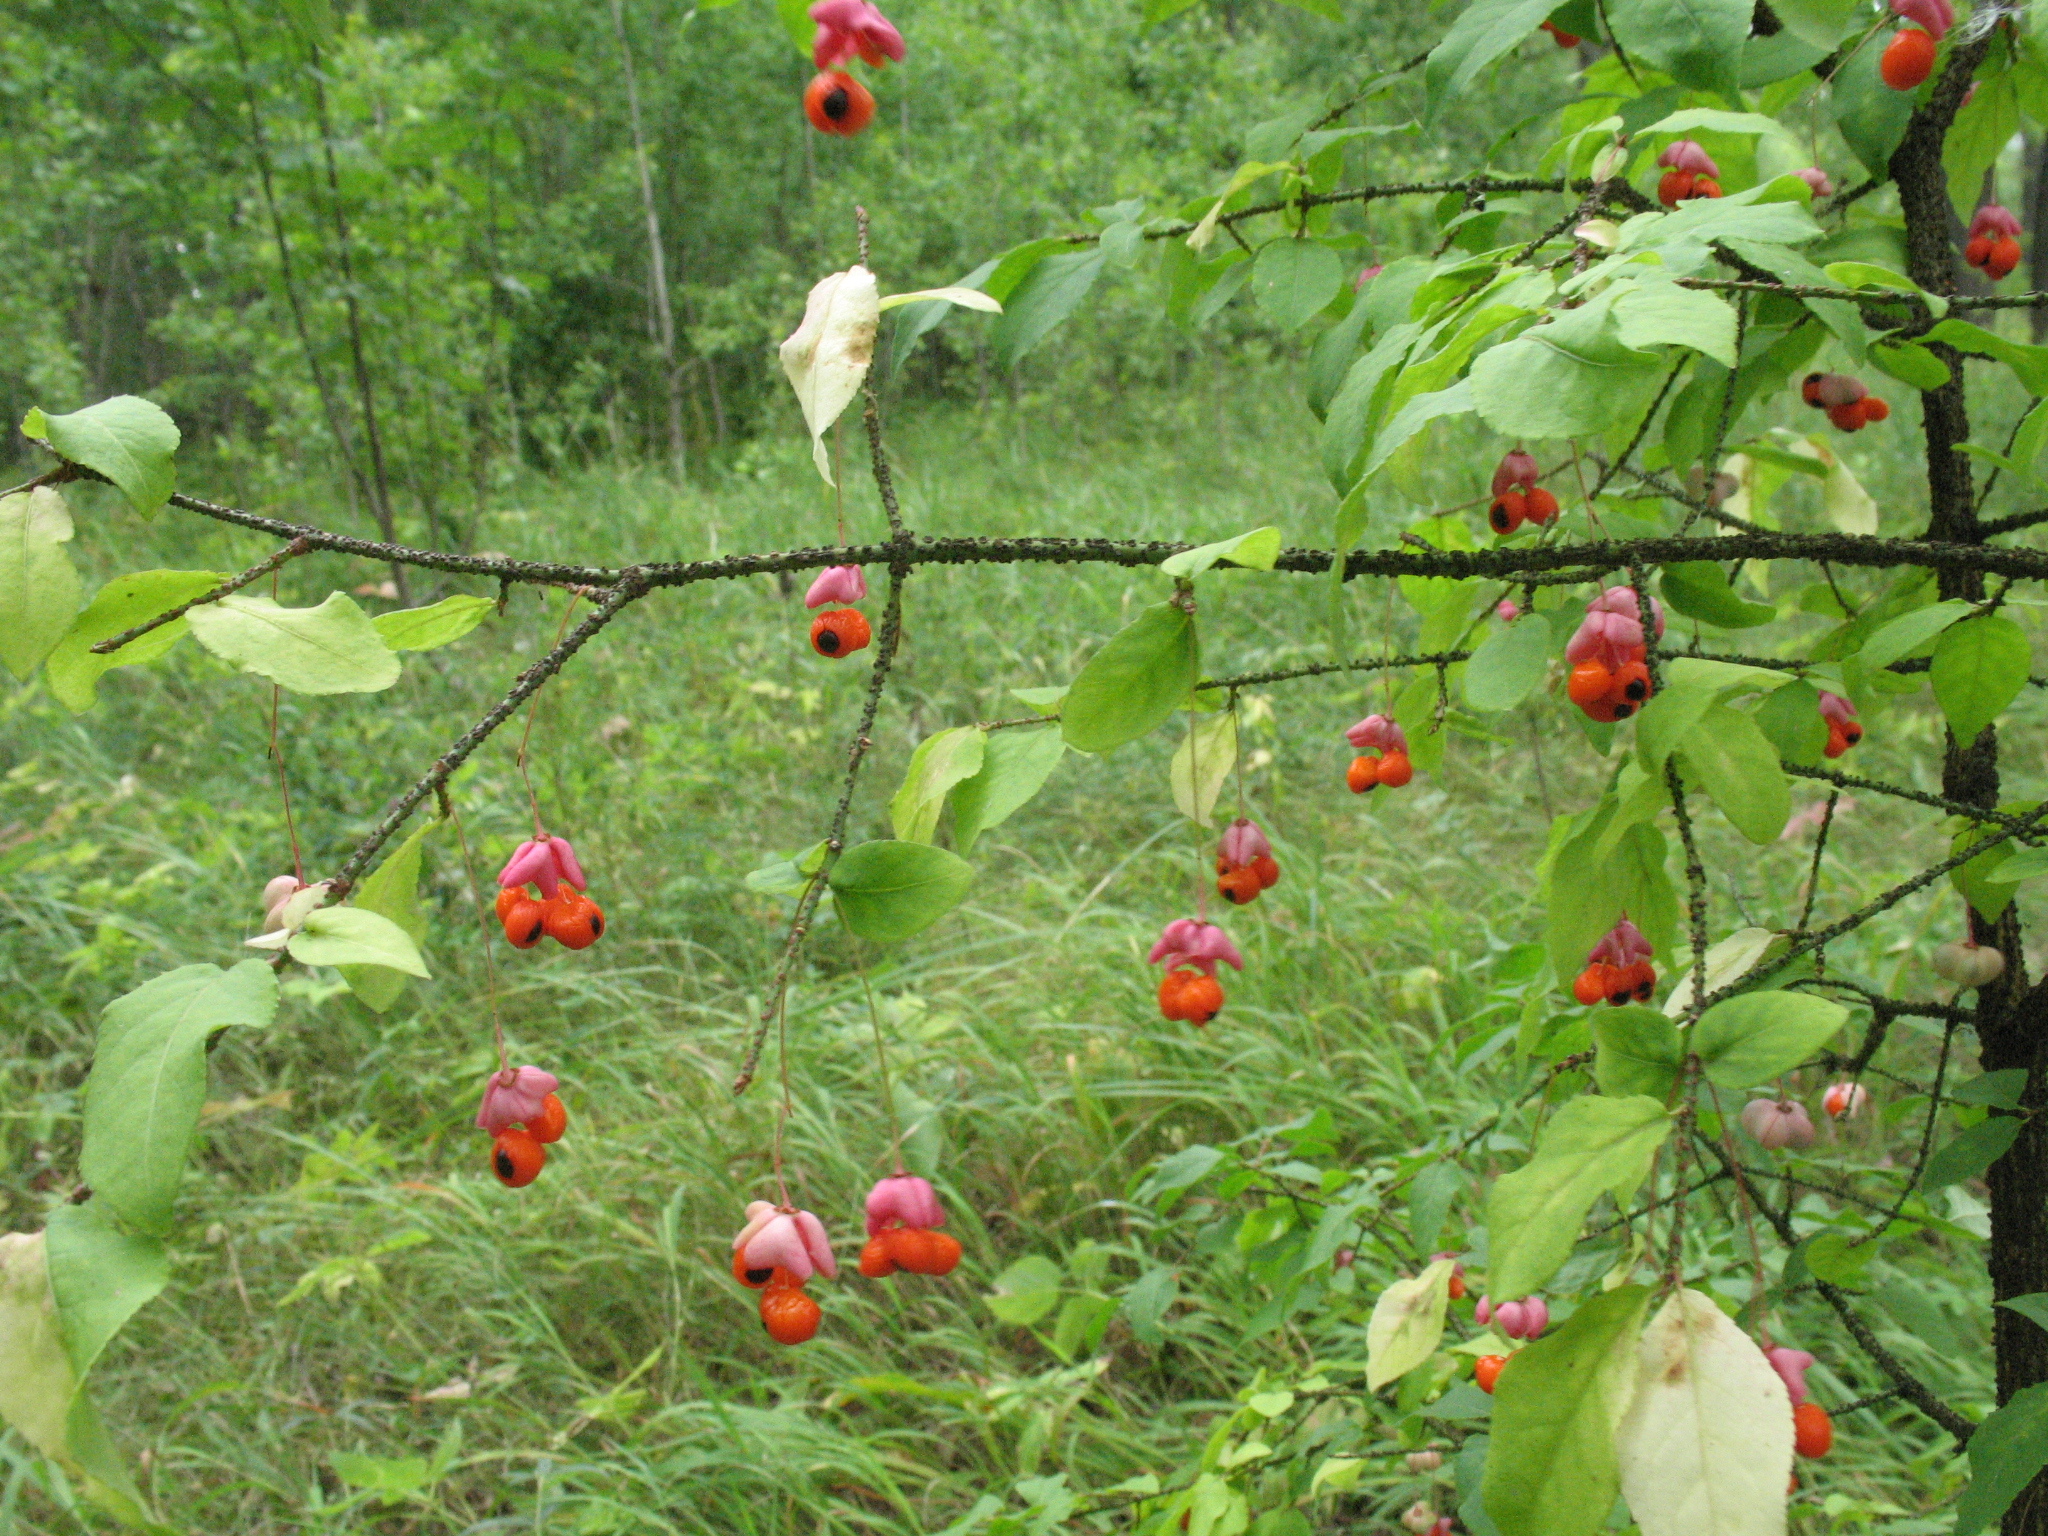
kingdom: Plantae
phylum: Tracheophyta
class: Magnoliopsida
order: Celastrales
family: Celastraceae
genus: Euonymus
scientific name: Euonymus verrucosus
